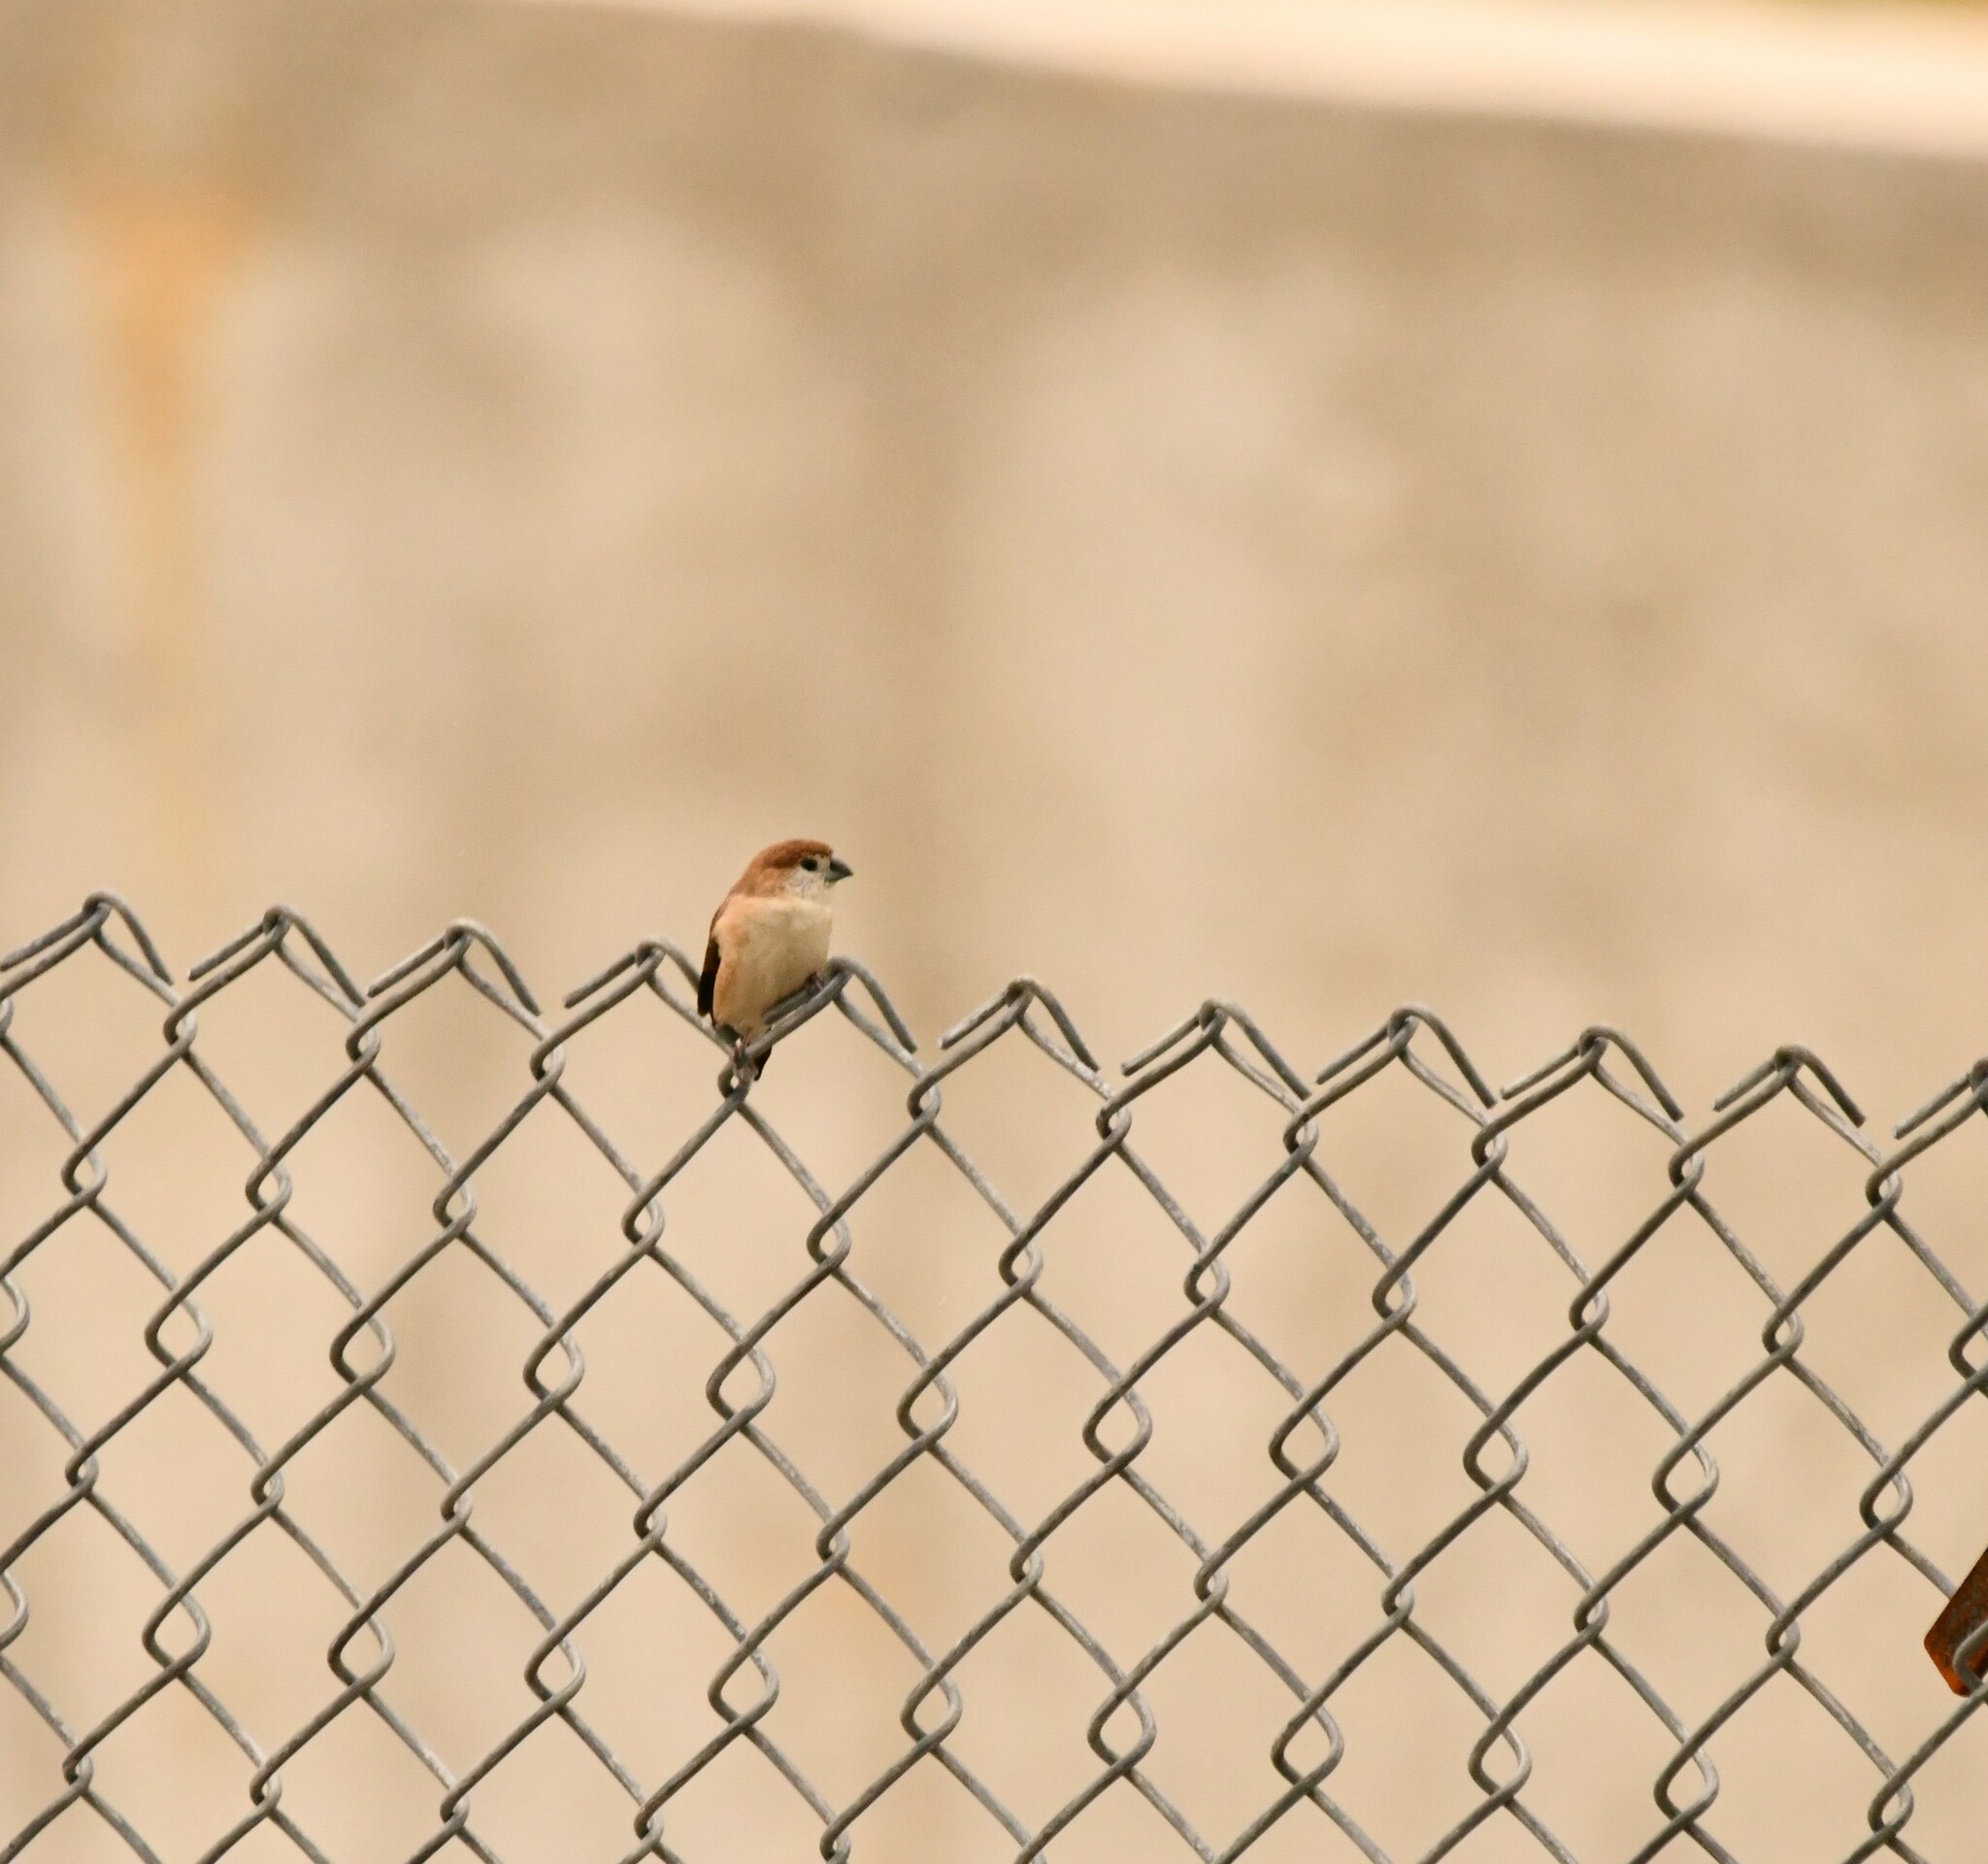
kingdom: Animalia
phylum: Chordata
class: Aves
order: Passeriformes
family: Estrildidae
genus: Euodice
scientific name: Euodice malabarica
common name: Indian silverbill
